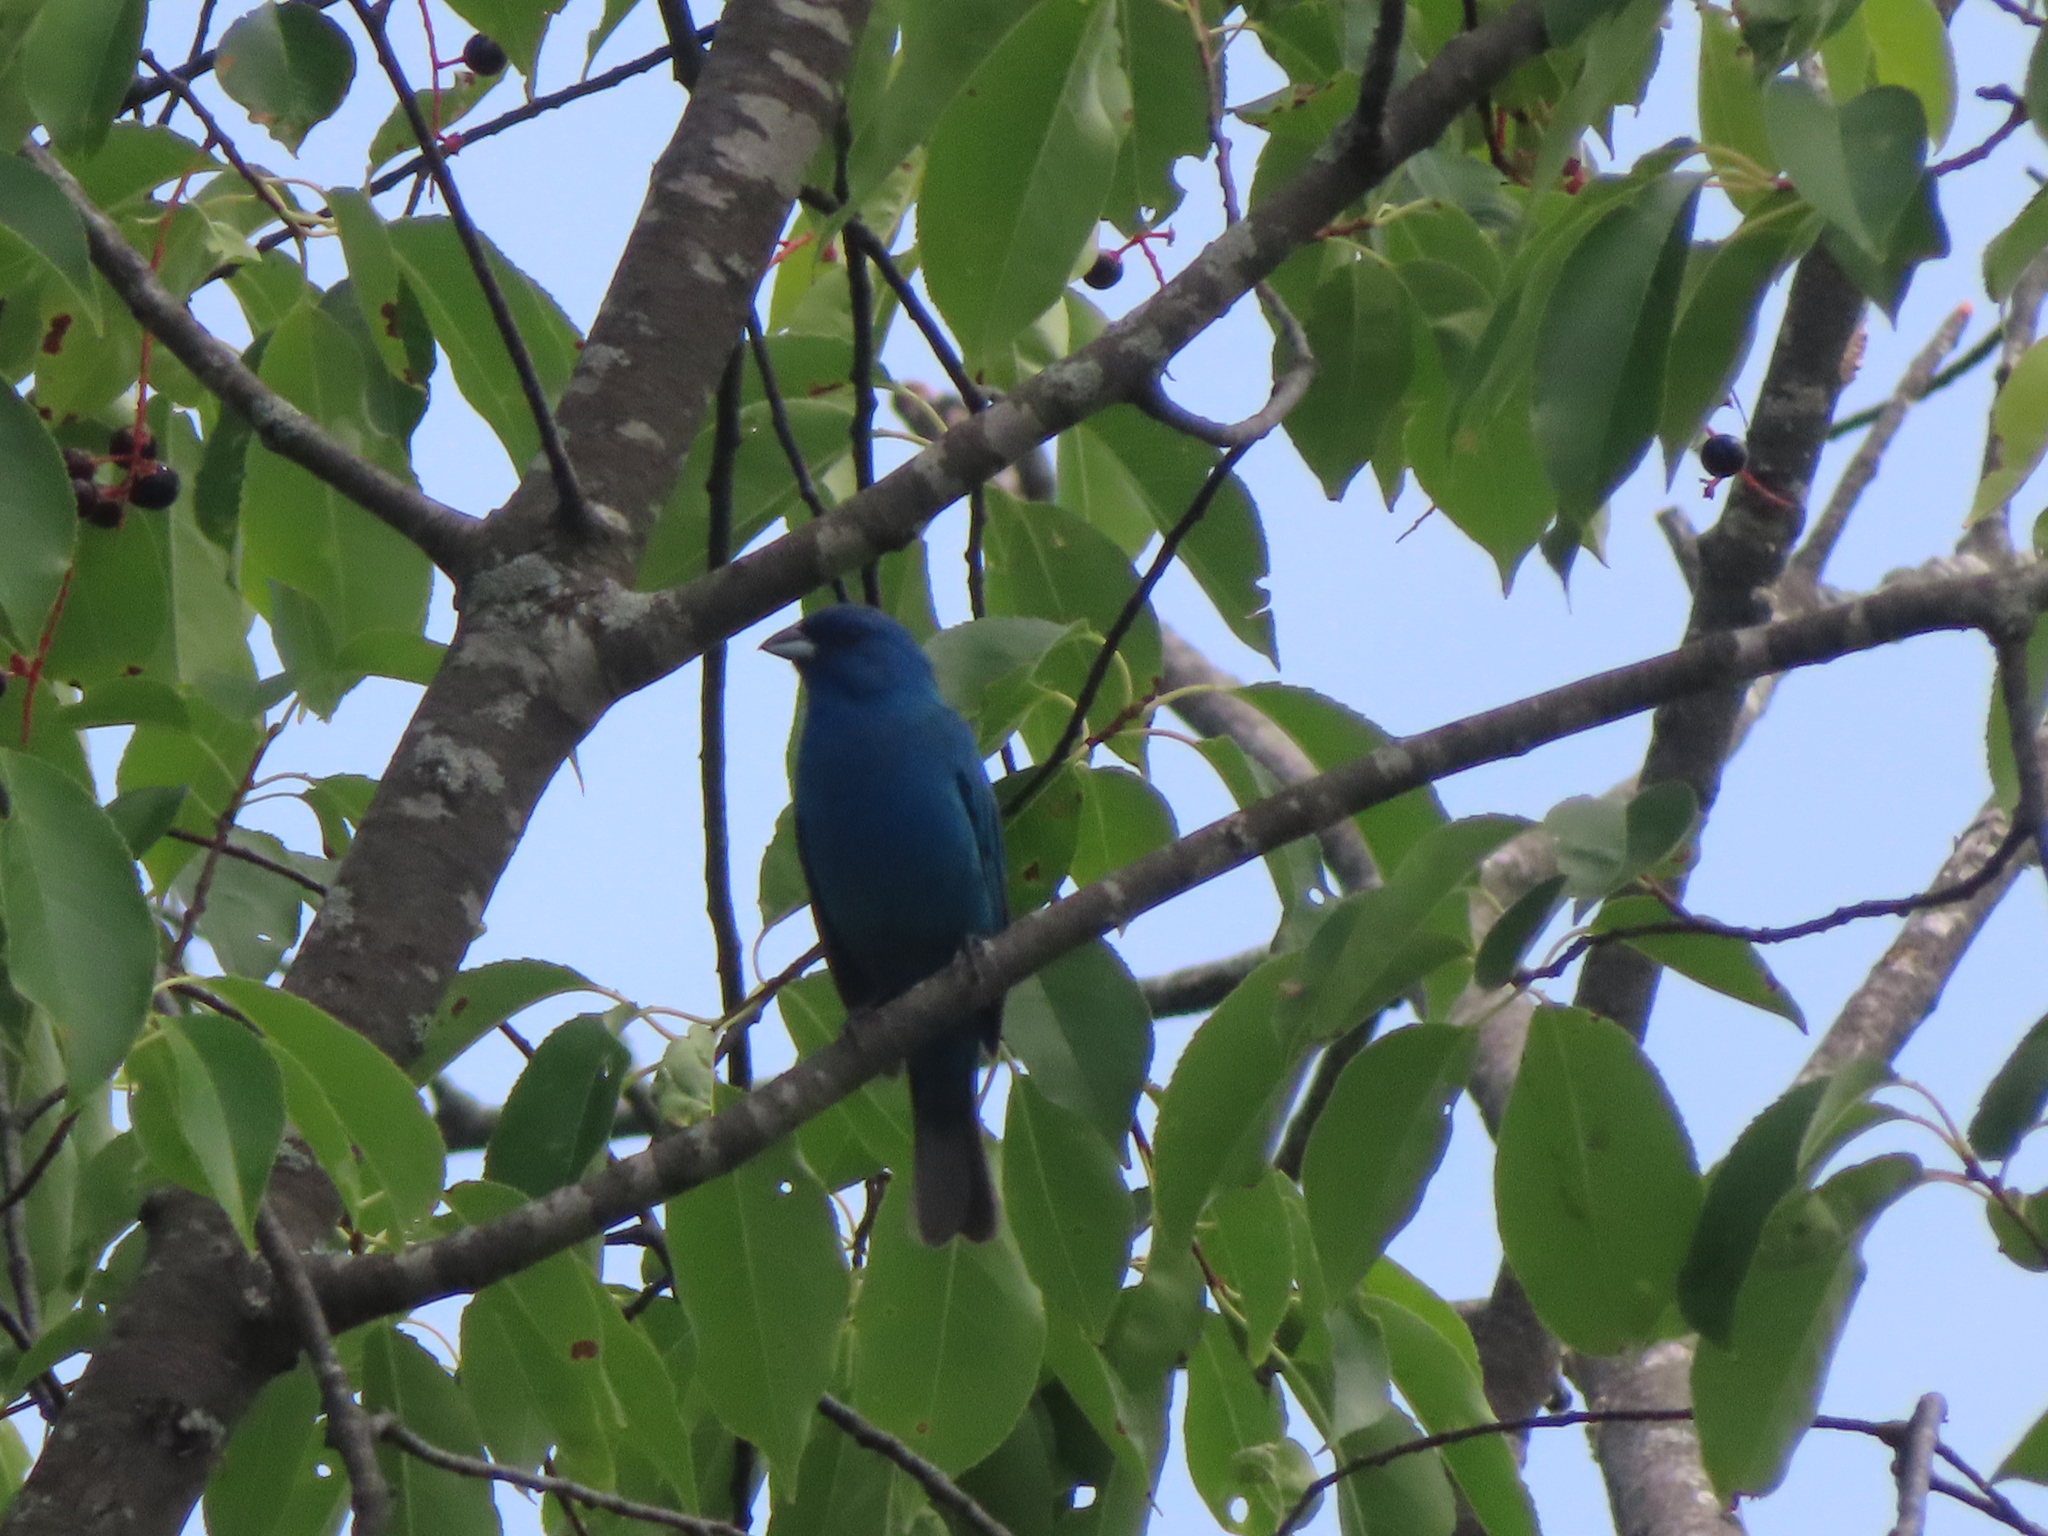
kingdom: Animalia
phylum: Chordata
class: Aves
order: Passeriformes
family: Cardinalidae
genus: Passerina
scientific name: Passerina cyanea
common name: Indigo bunting
